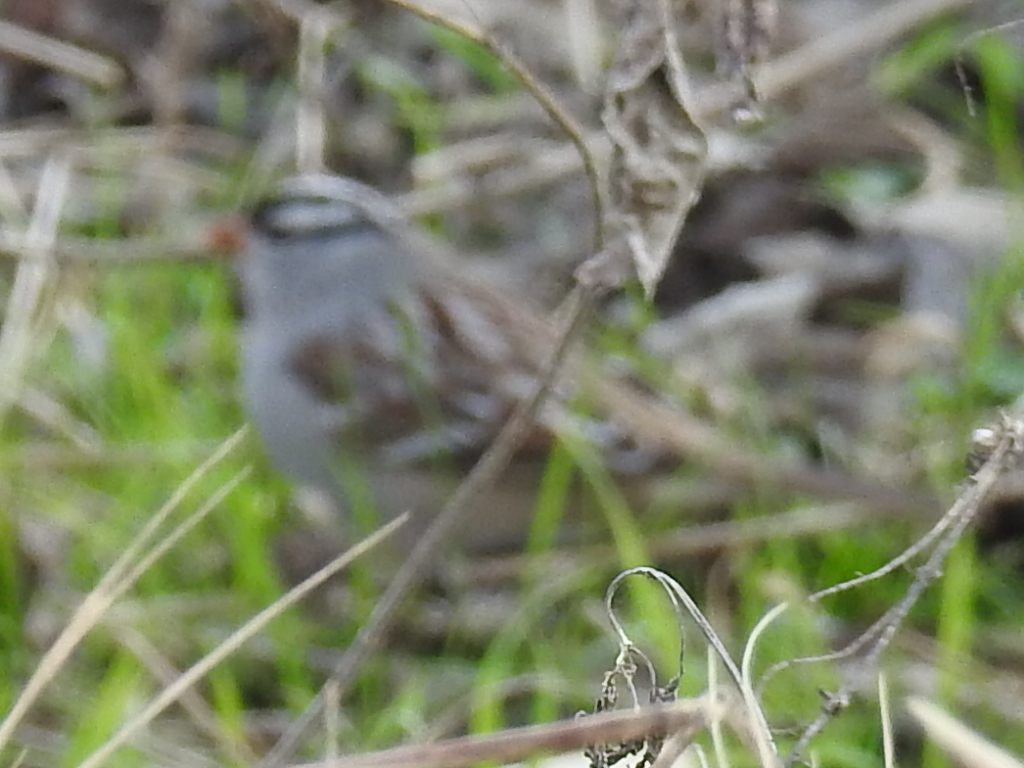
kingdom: Animalia
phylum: Chordata
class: Aves
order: Passeriformes
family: Passerellidae
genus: Zonotrichia
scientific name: Zonotrichia leucophrys
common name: White-crowned sparrow
